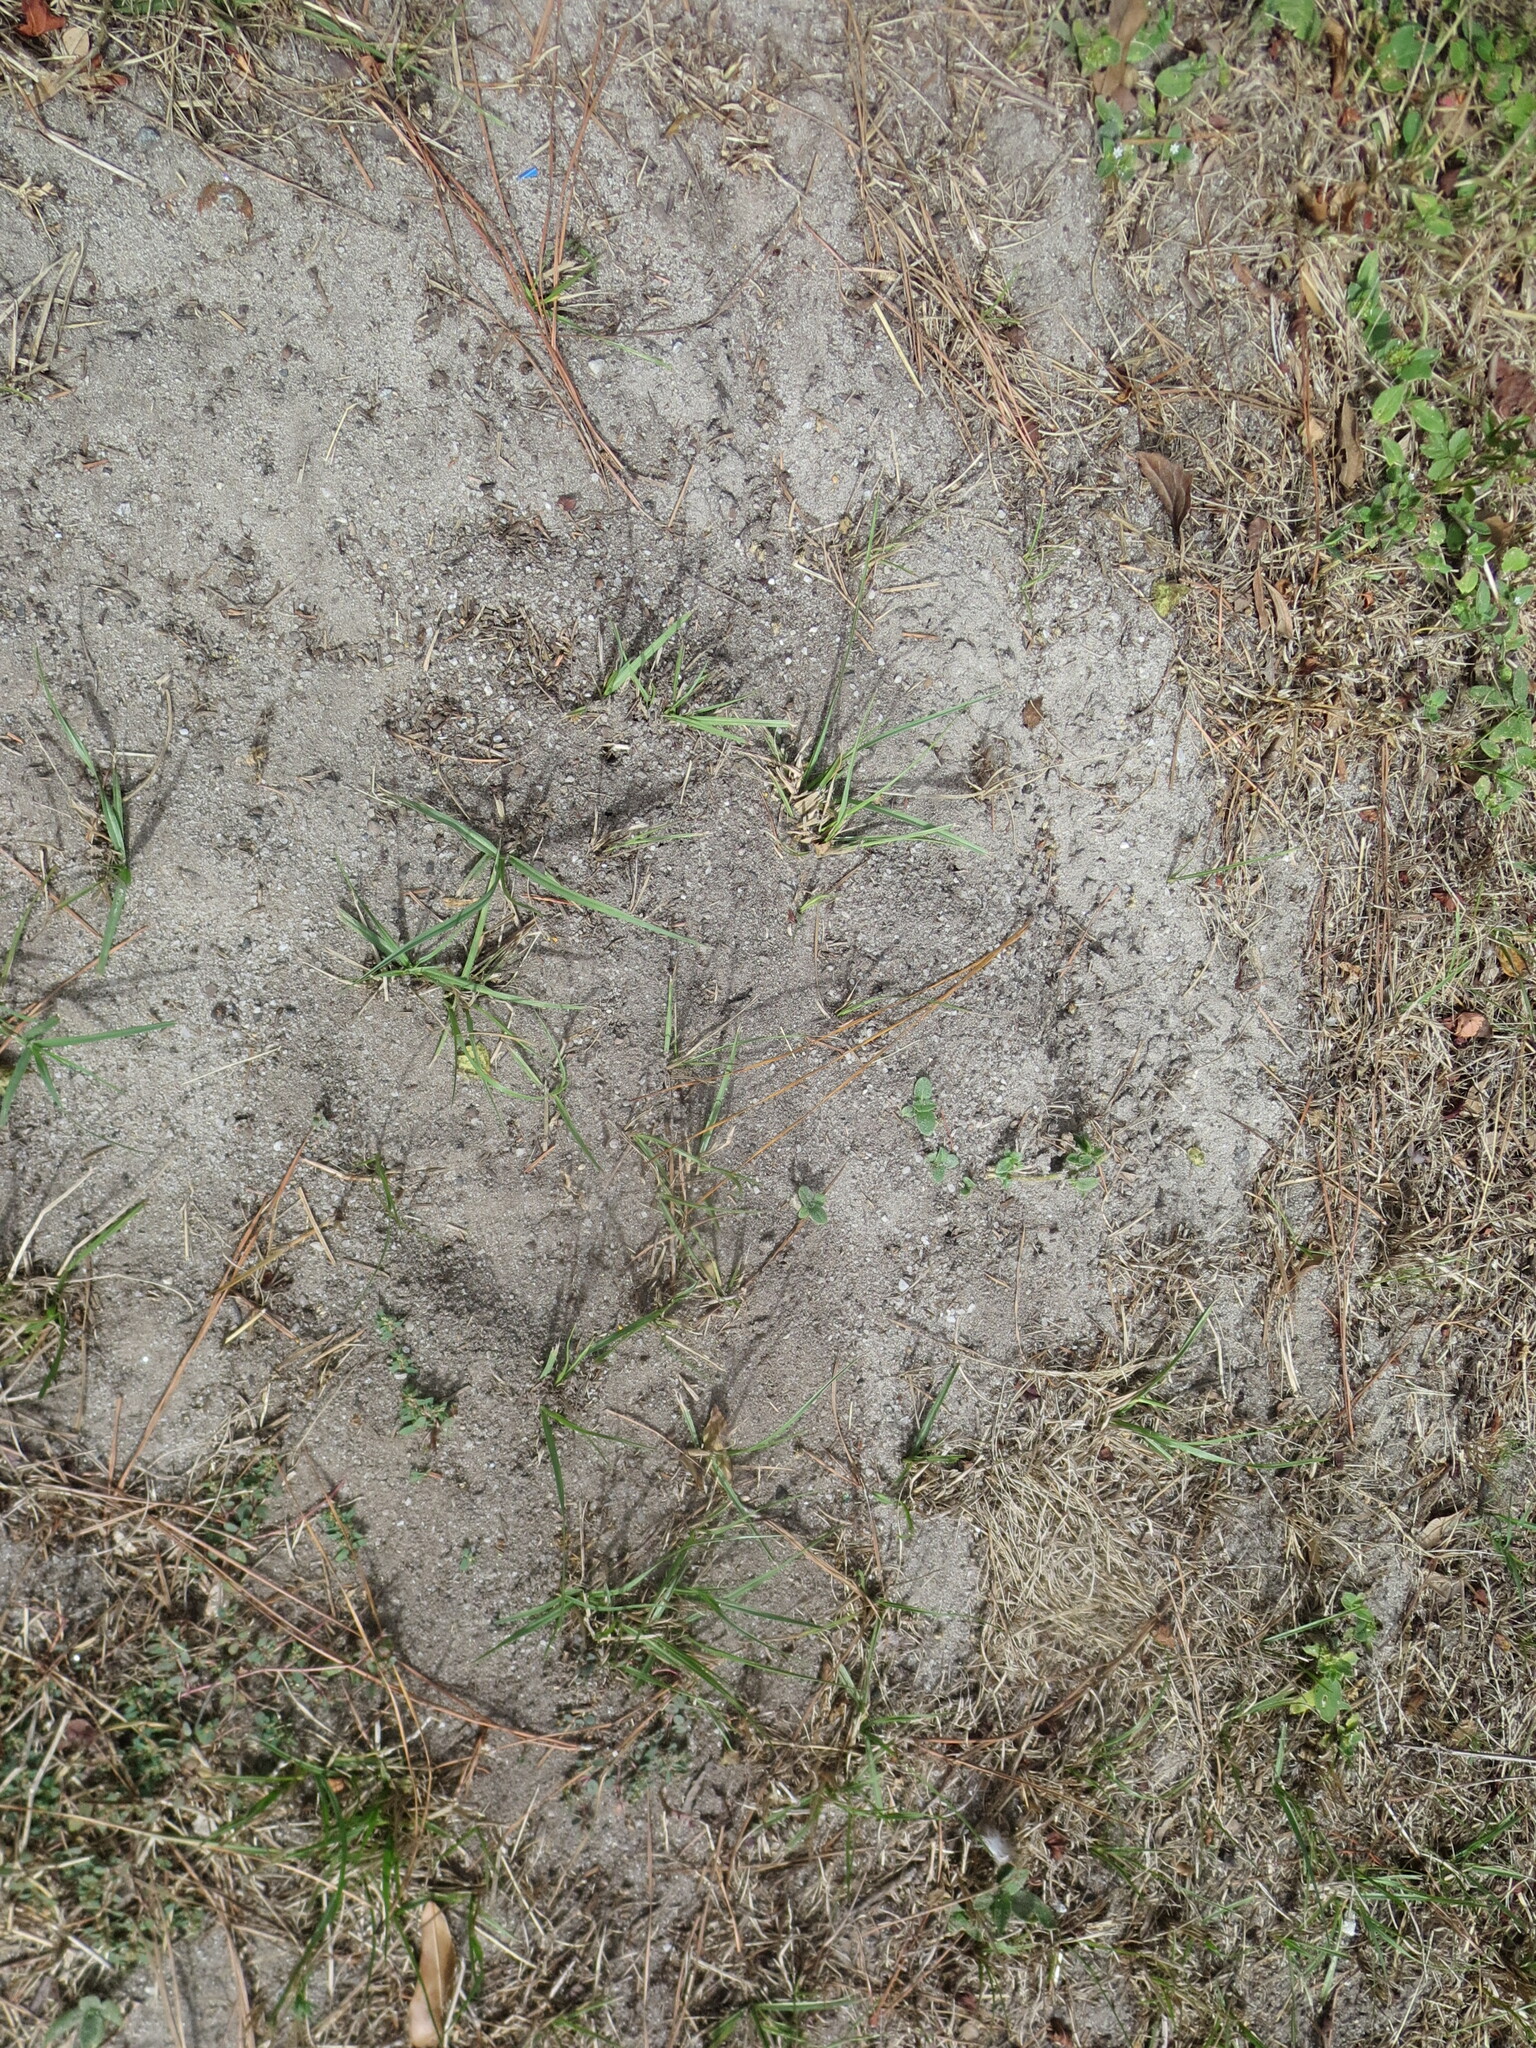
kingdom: Animalia
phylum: Arthropoda
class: Insecta
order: Hymenoptera
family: Formicidae
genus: Solenopsis
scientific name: Solenopsis invicta
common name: Red imported fire ant
